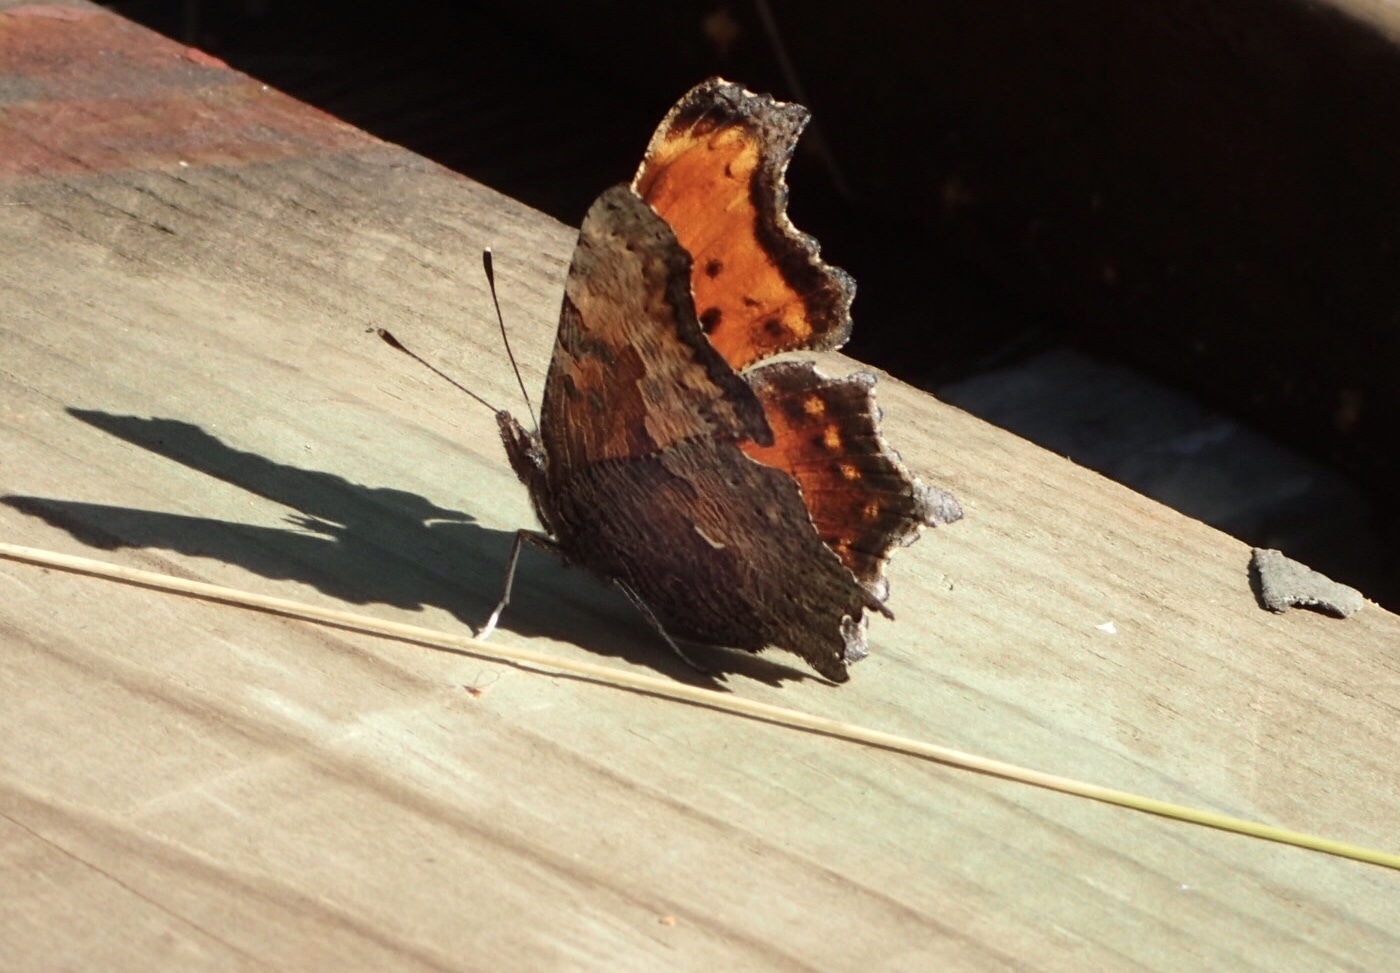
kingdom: Animalia
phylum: Arthropoda
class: Insecta
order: Lepidoptera
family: Nymphalidae
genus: Polygonia
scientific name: Polygonia progne
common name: Gray comma
